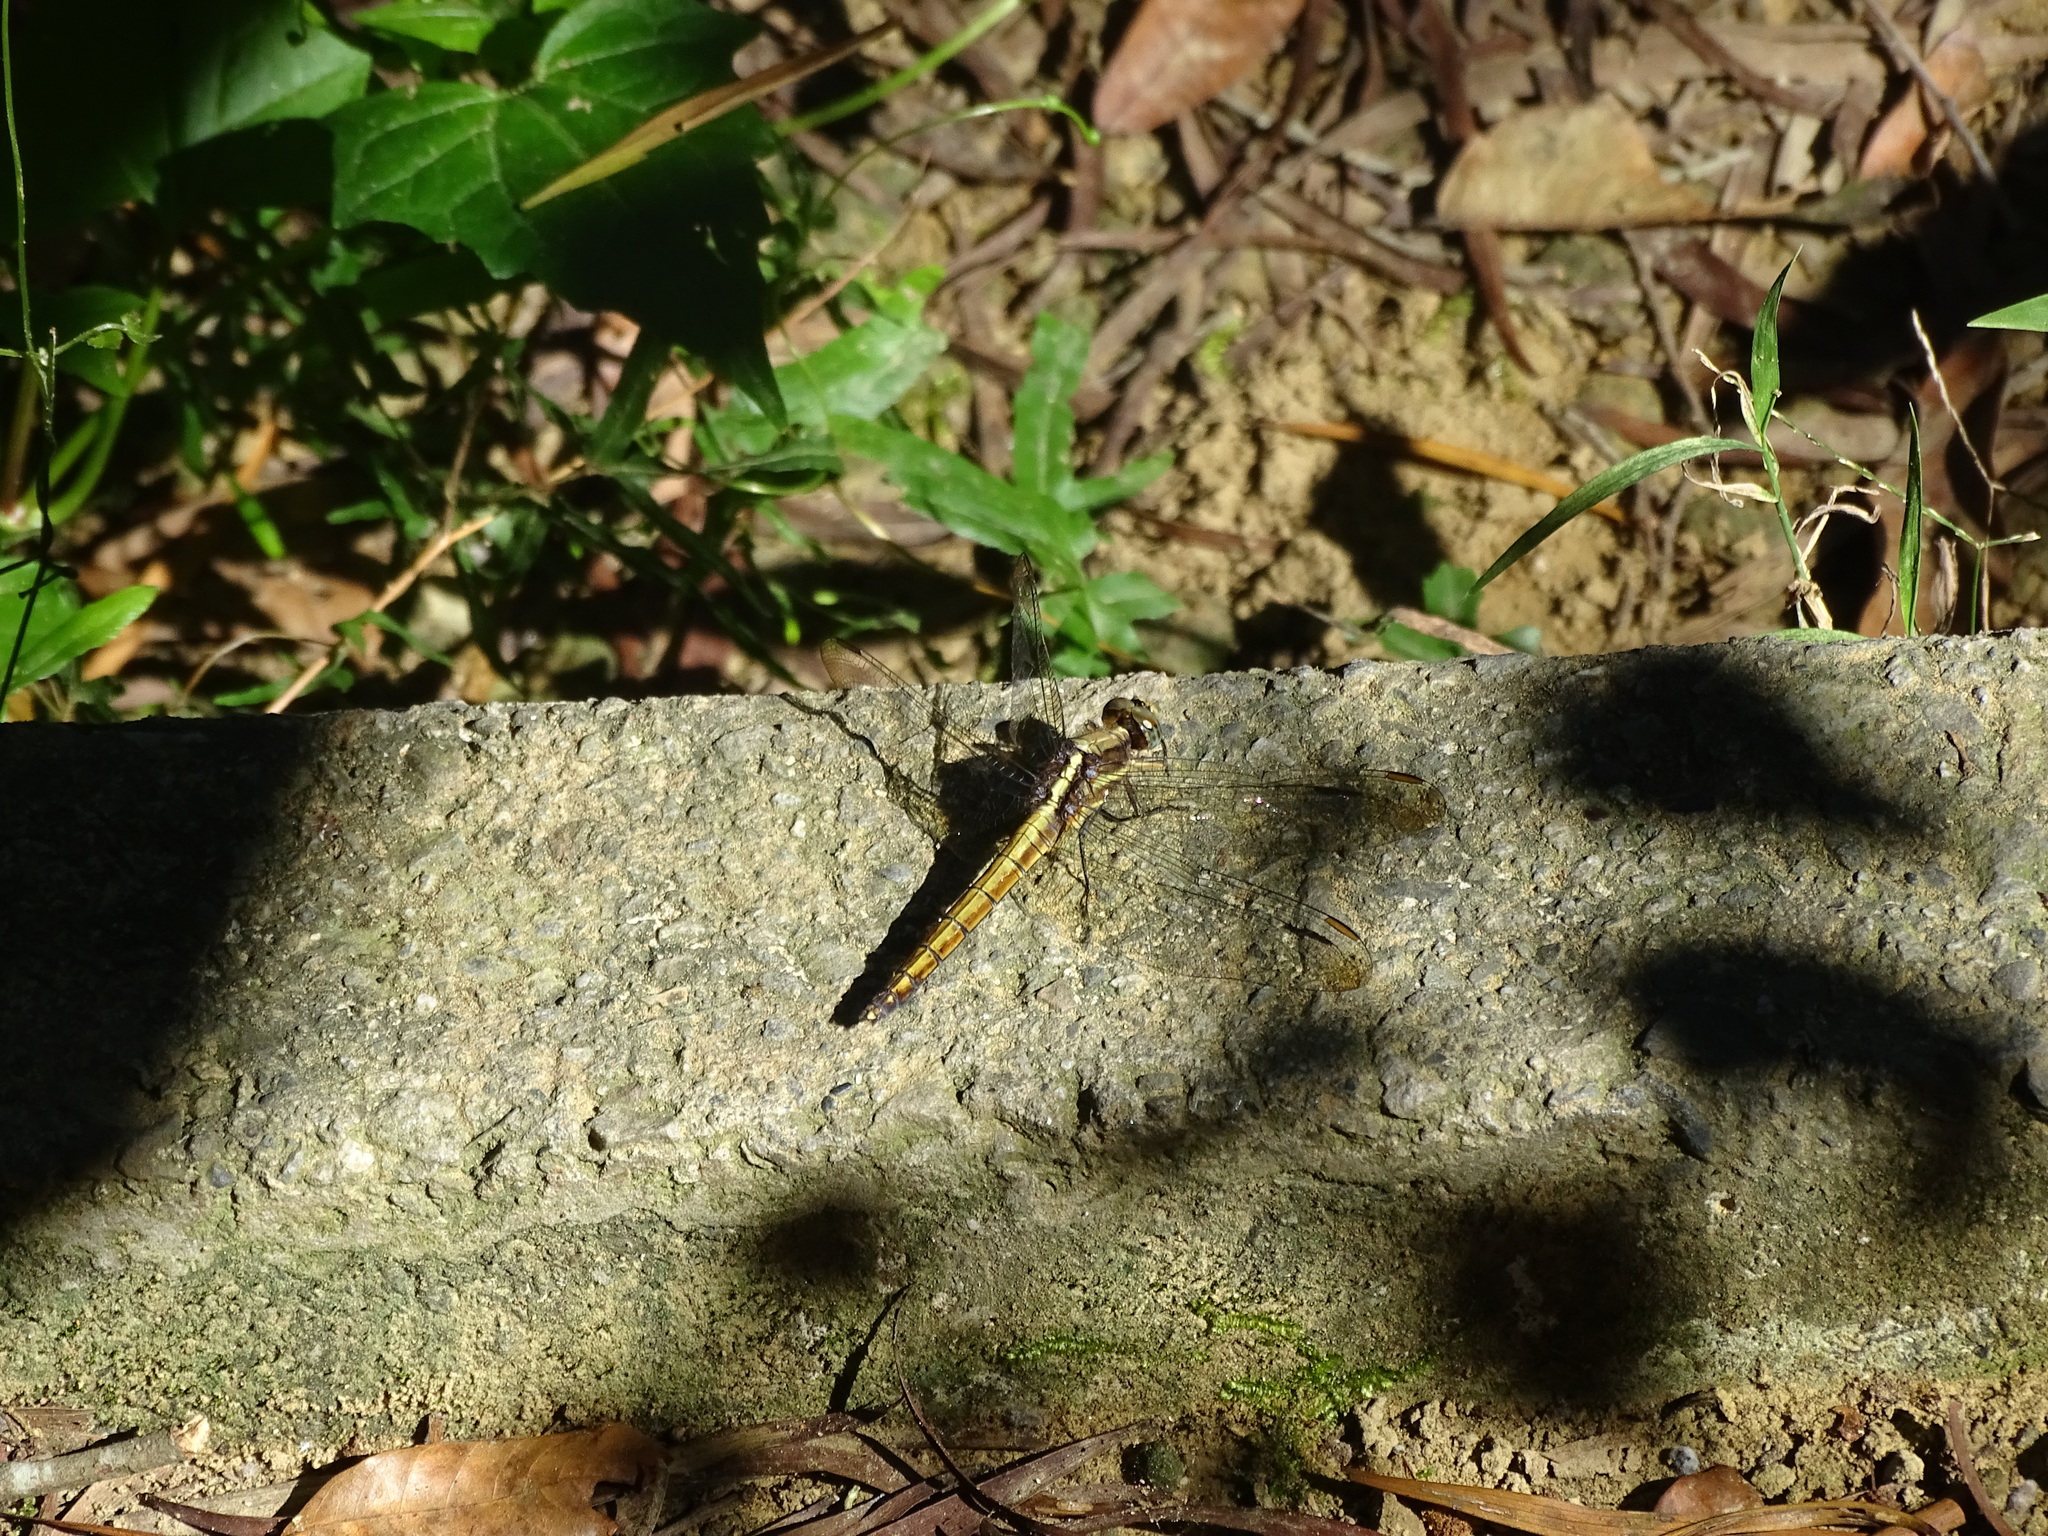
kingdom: Animalia
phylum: Arthropoda
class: Insecta
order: Odonata
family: Libellulidae
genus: Orthetrum
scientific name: Orthetrum glaucum
